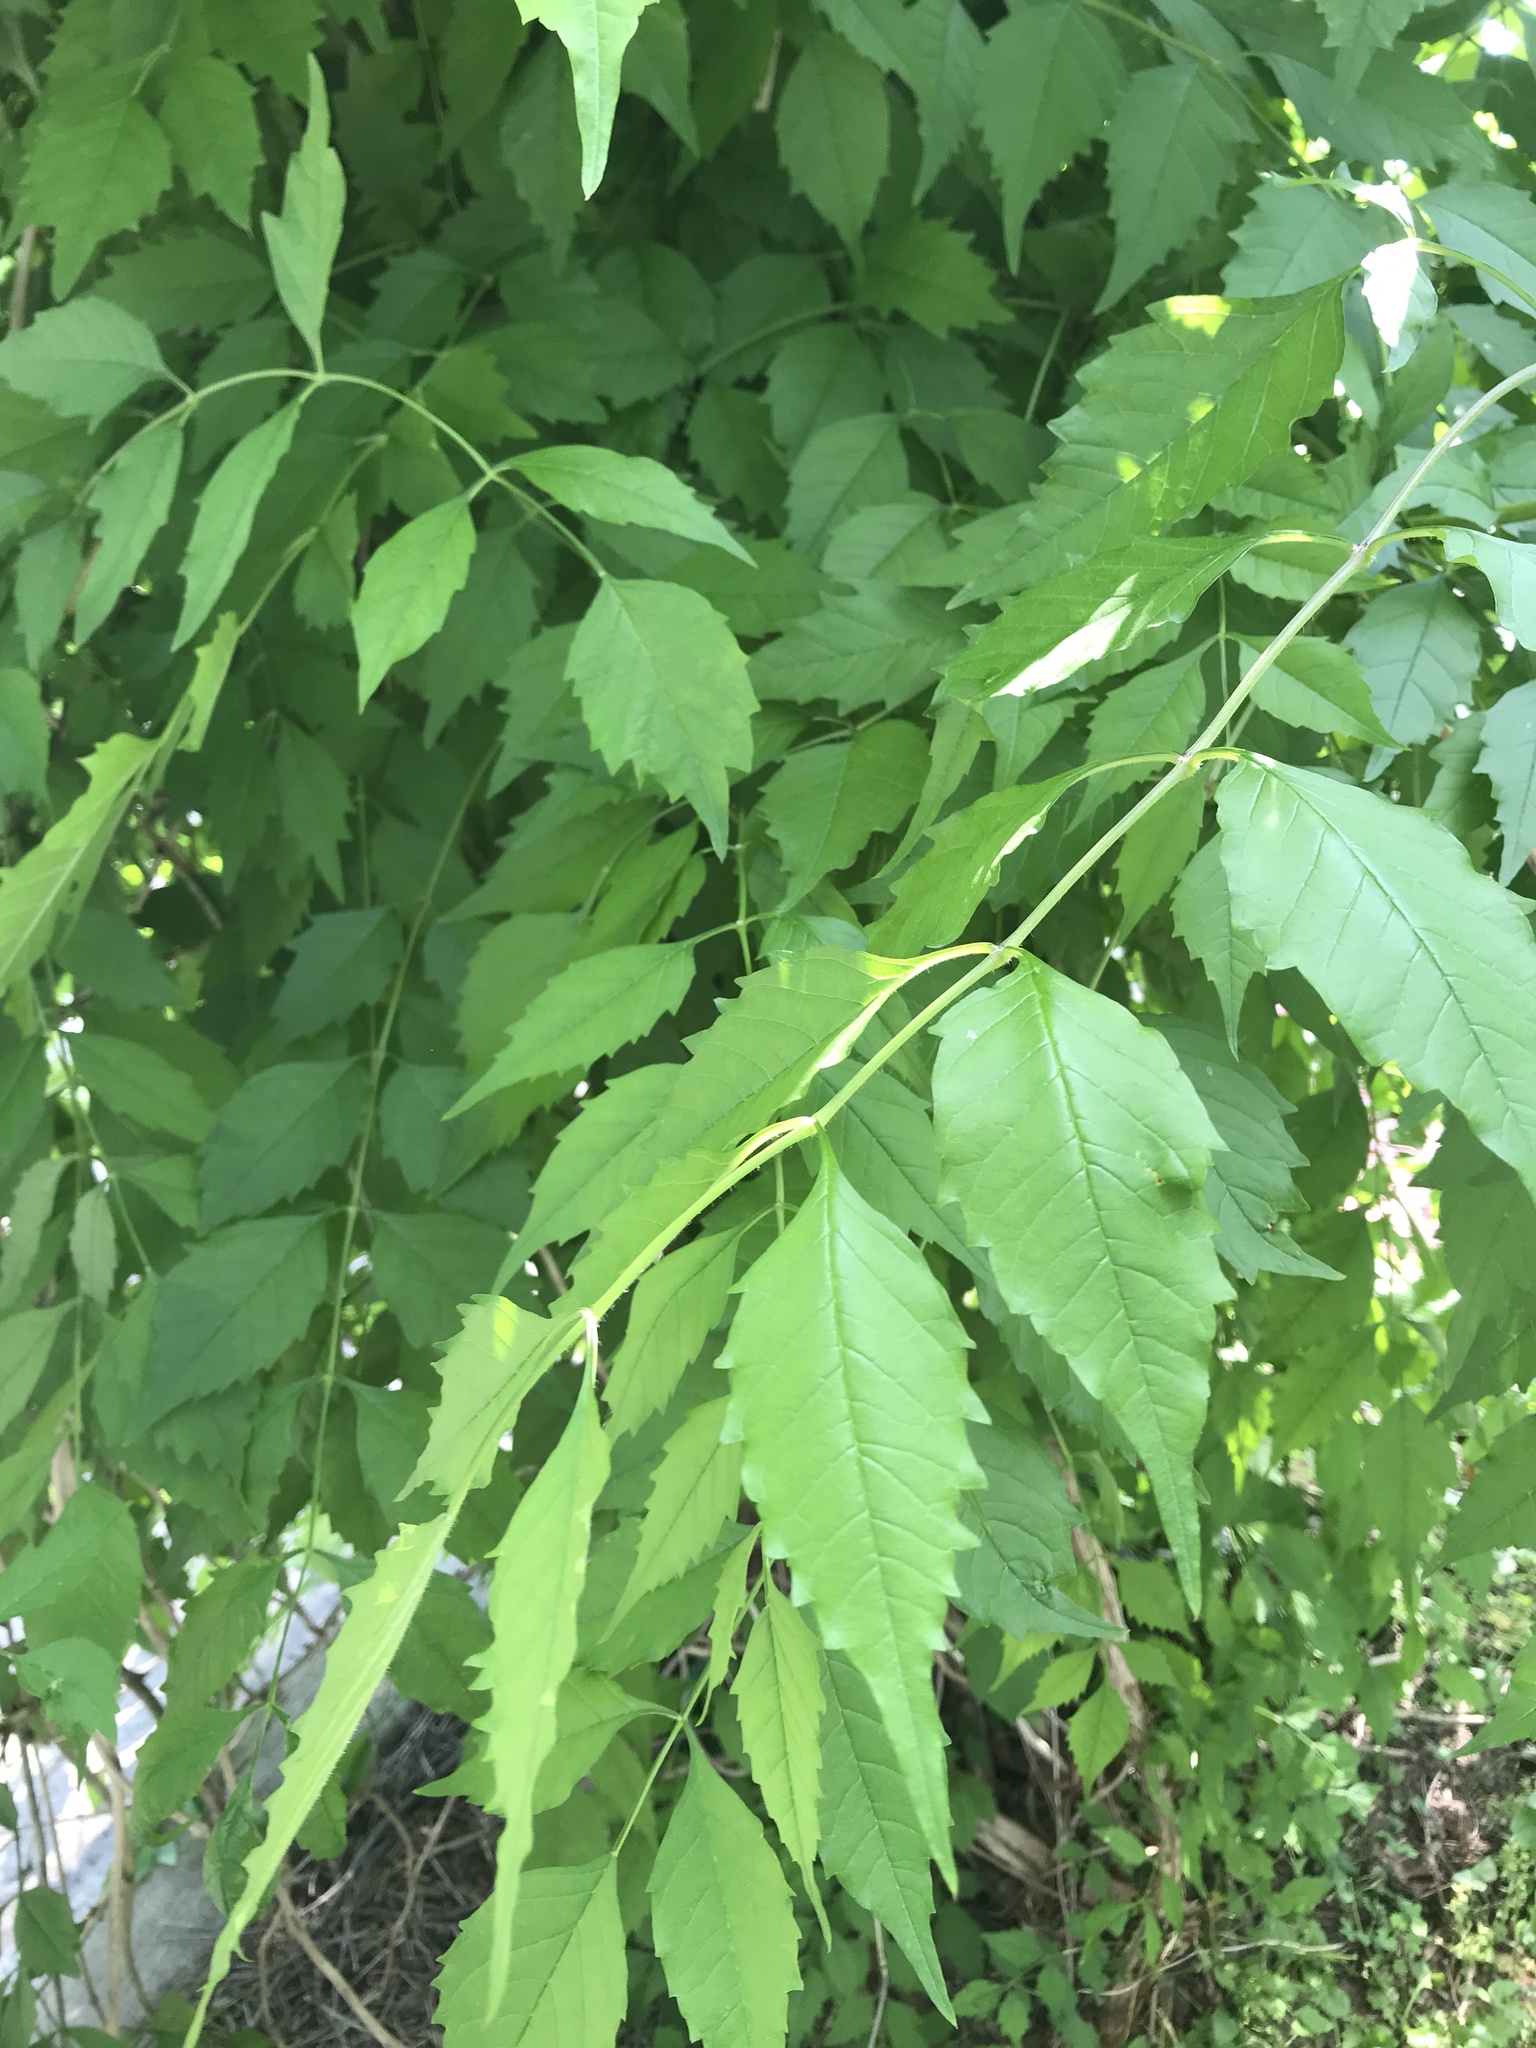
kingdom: Plantae
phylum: Tracheophyta
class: Magnoliopsida
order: Lamiales
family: Bignoniaceae
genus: Campsis
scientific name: Campsis radicans
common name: Trumpet-creeper
